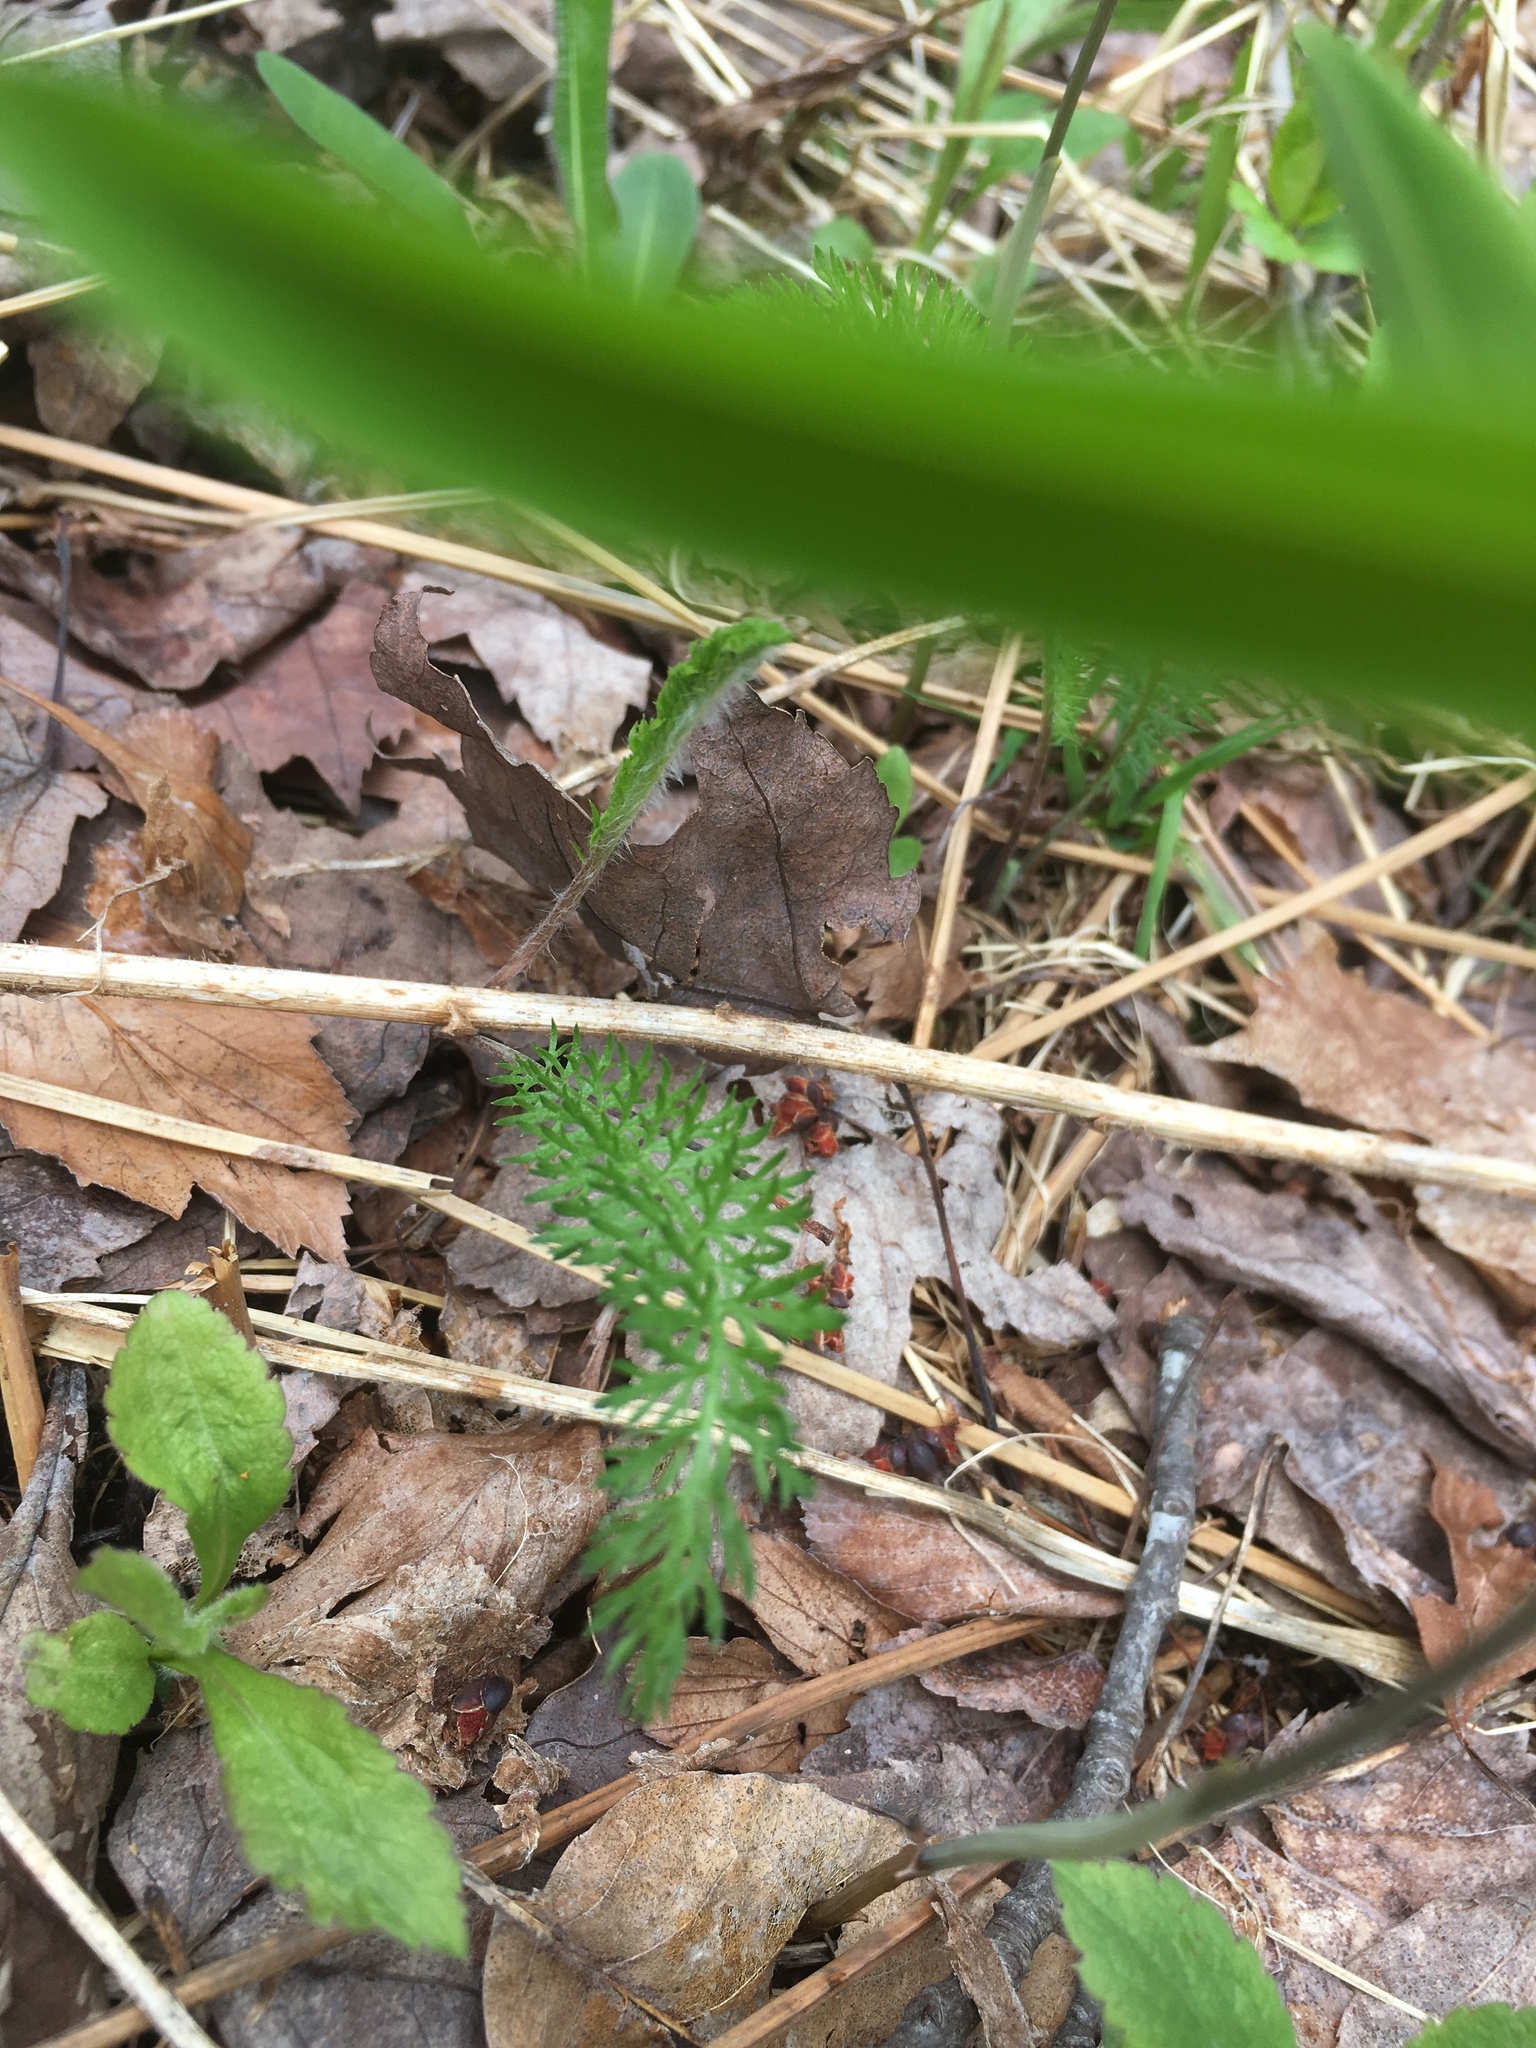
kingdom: Plantae
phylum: Tracheophyta
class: Magnoliopsida
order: Asterales
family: Asteraceae
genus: Achillea
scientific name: Achillea millefolium
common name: Yarrow
